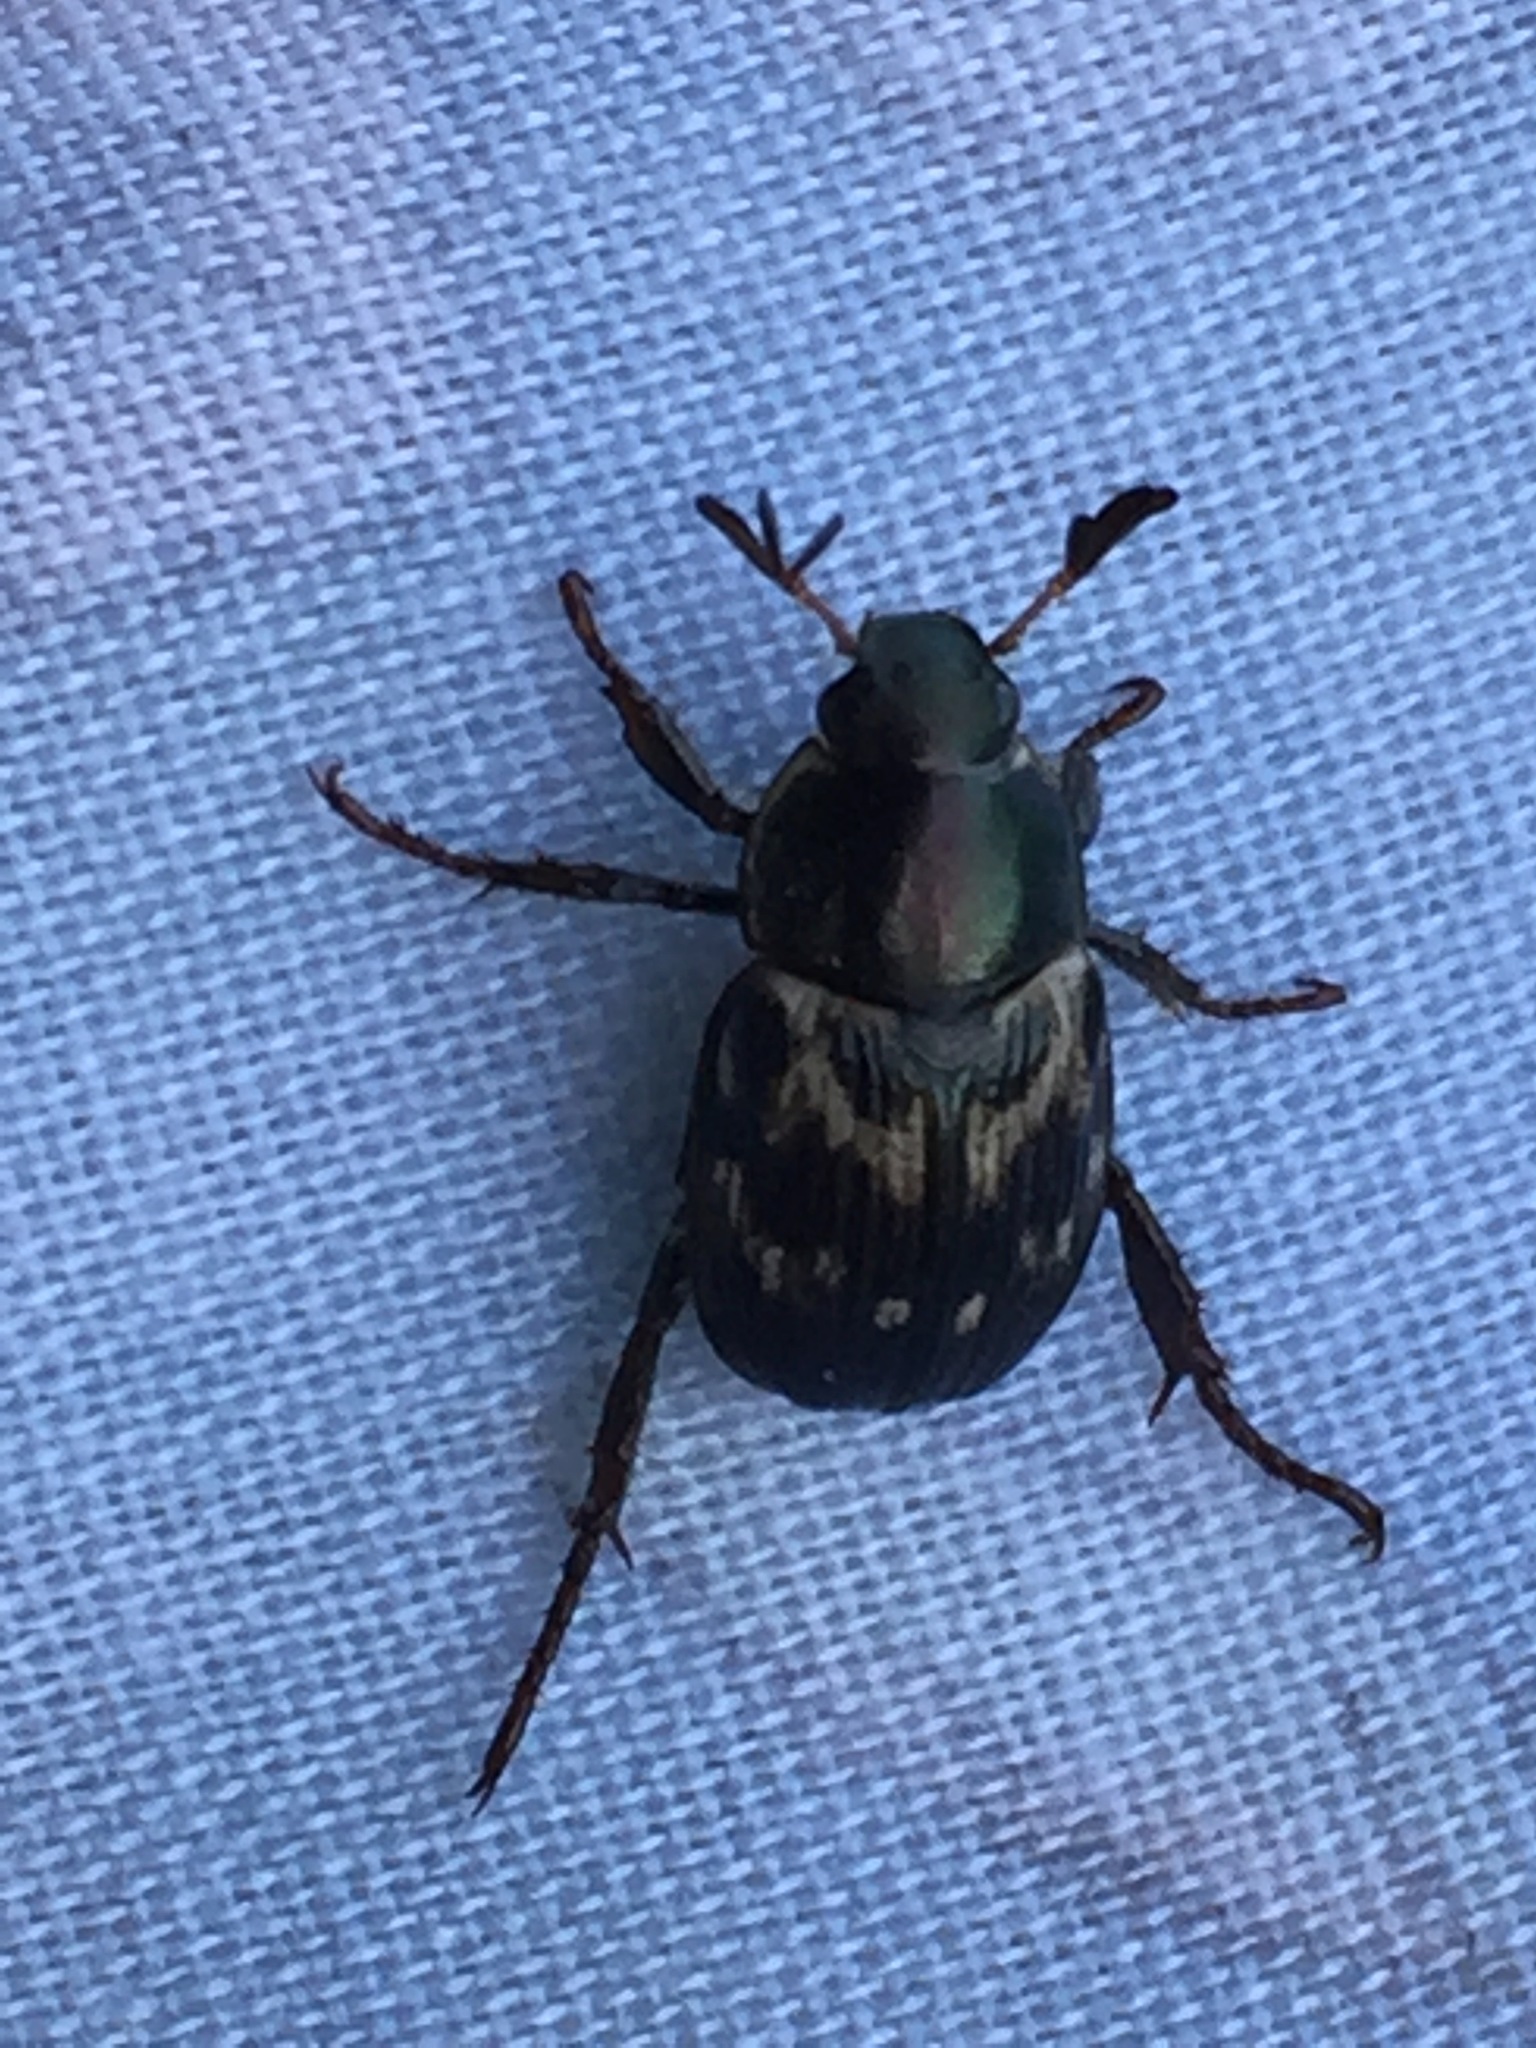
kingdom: Animalia
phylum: Arthropoda
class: Insecta
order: Coleoptera
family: Scarabaeidae
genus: Exomala
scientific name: Exomala orientalis
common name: Oriental beetle
